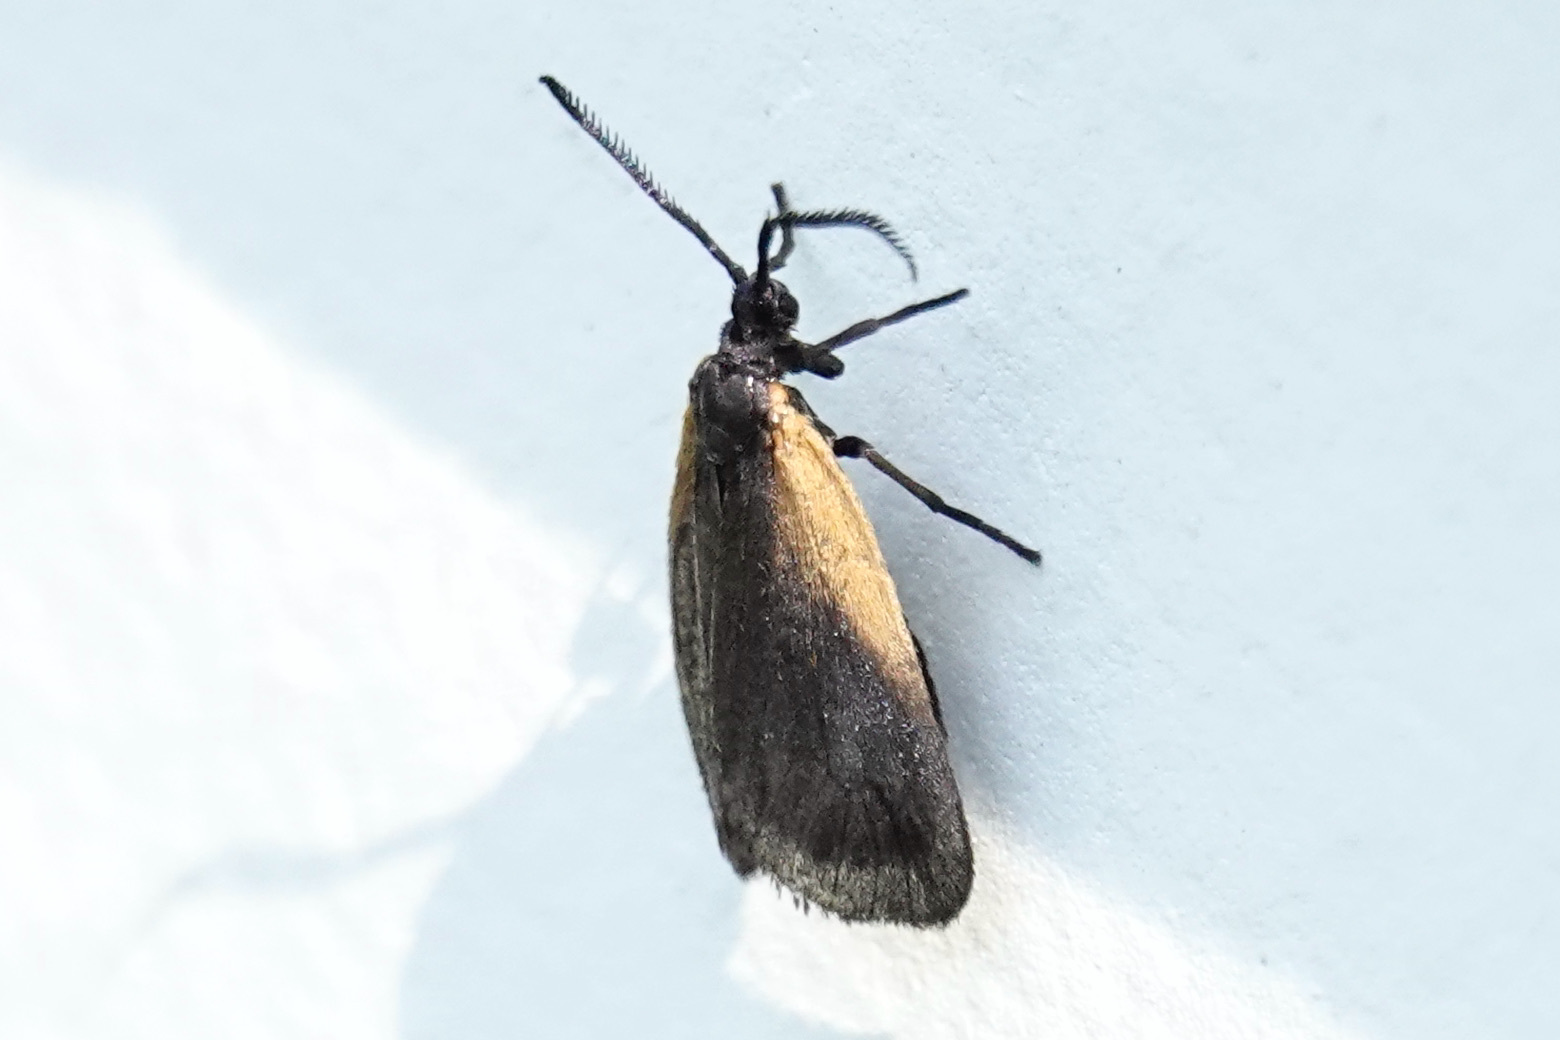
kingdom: Animalia
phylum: Arthropoda
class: Insecta
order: Lepidoptera
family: Zygaenidae
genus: Malthaca
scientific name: Malthaca dimidiata
